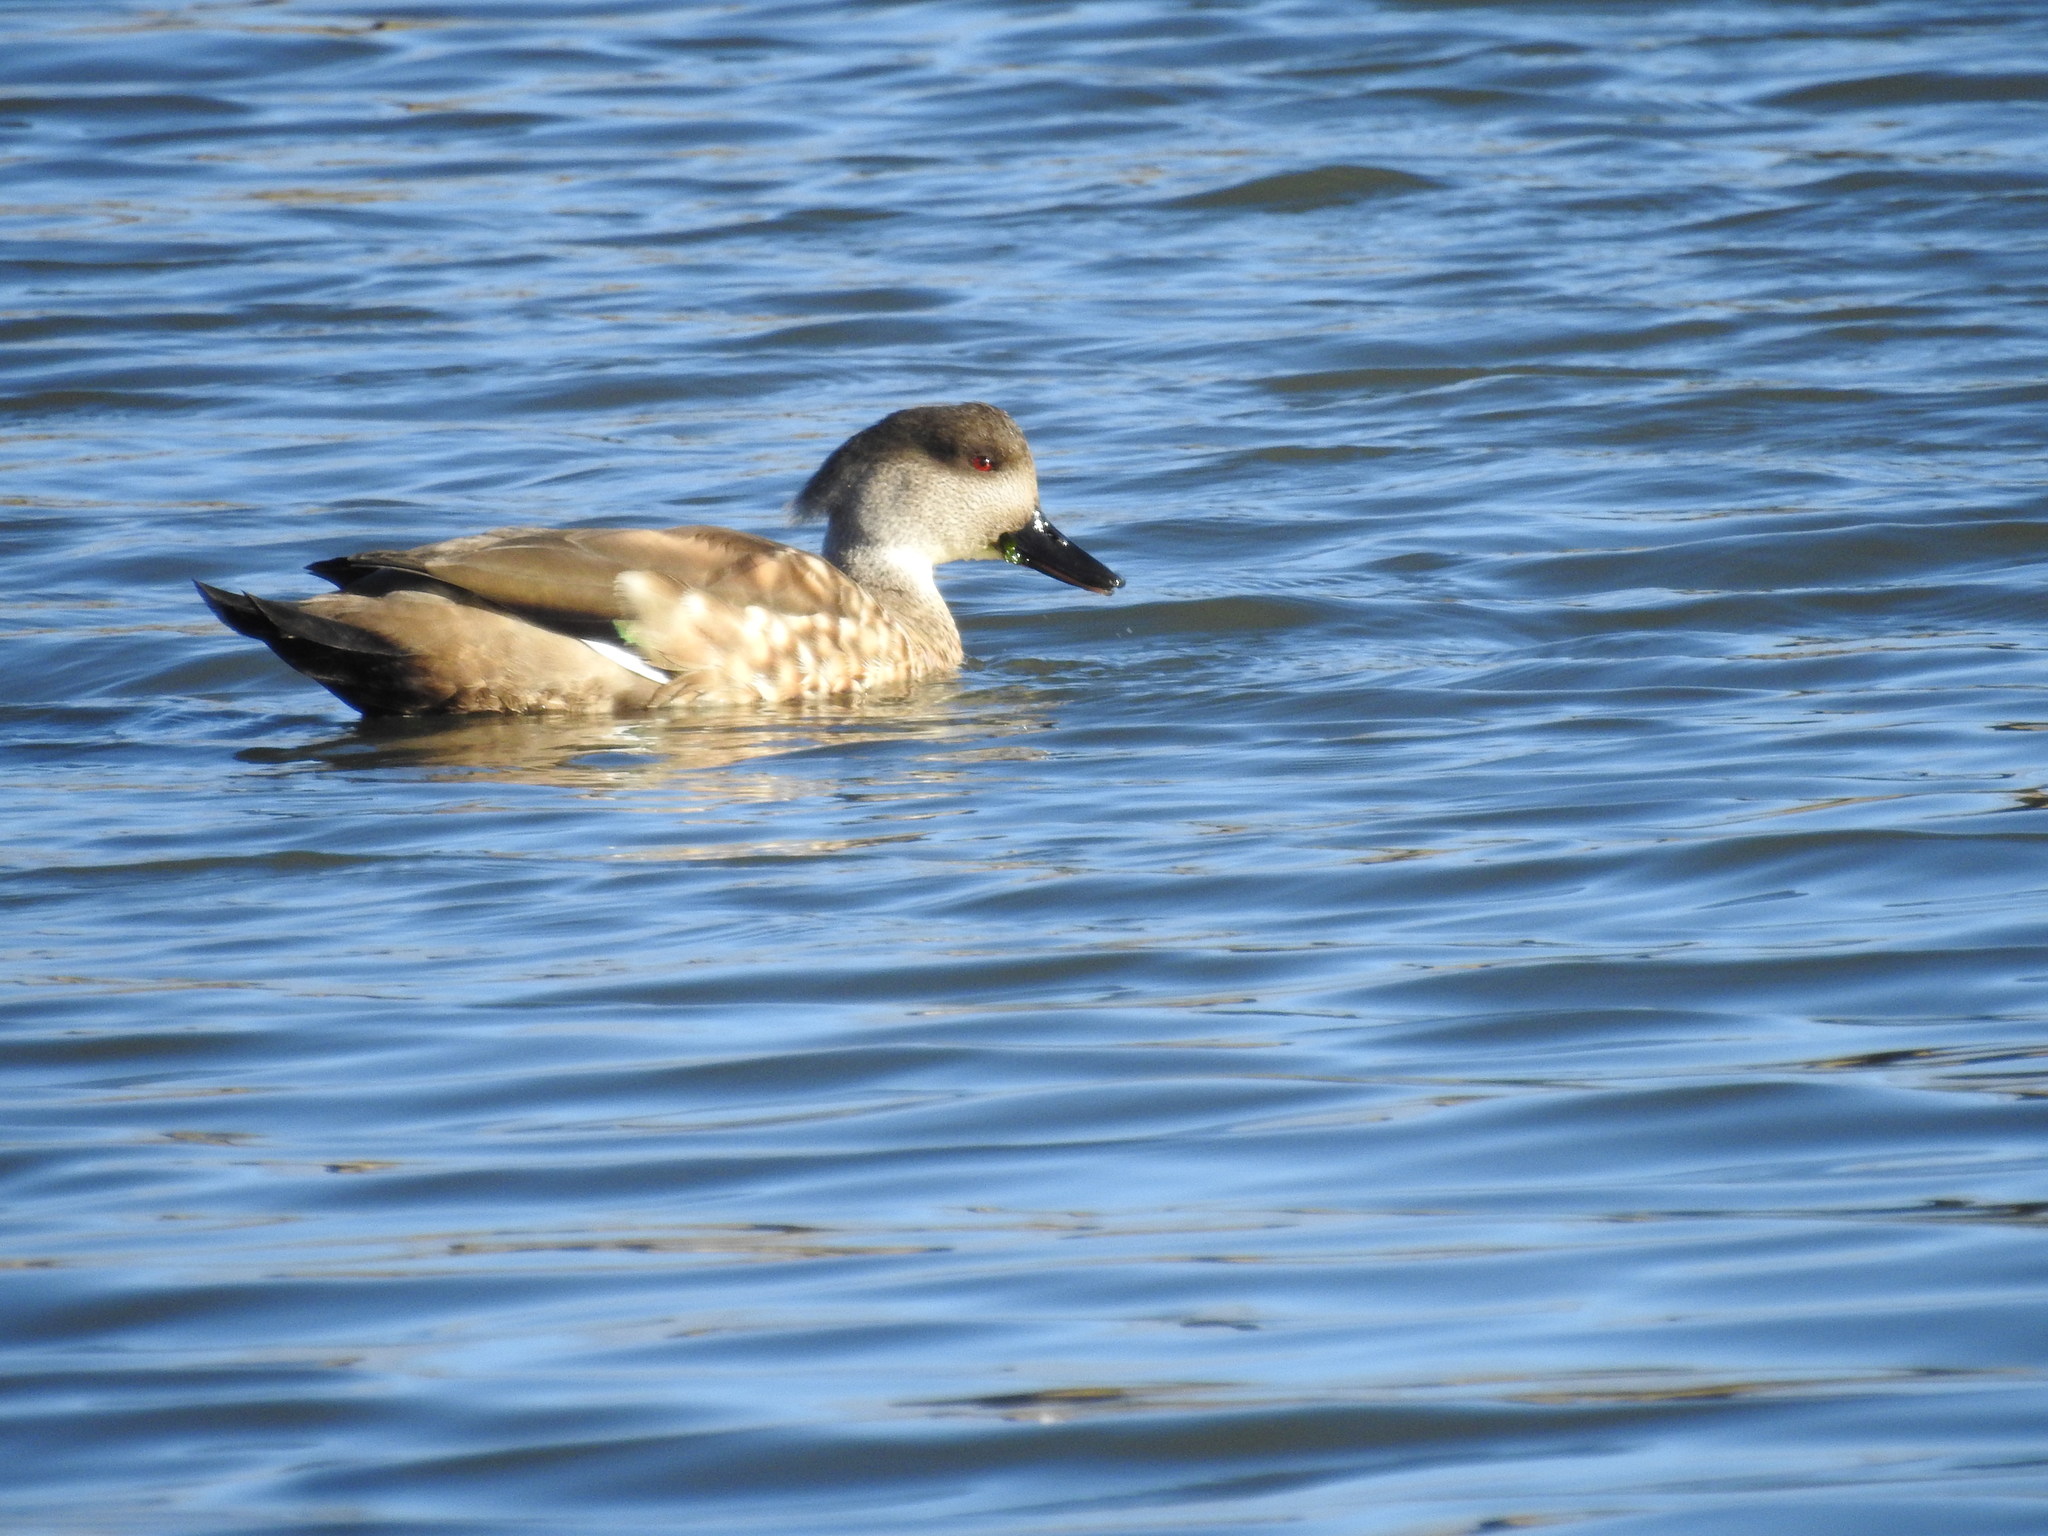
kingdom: Animalia
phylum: Chordata
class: Aves
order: Anseriformes
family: Anatidae
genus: Lophonetta
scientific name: Lophonetta specularioides
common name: Crested duck
